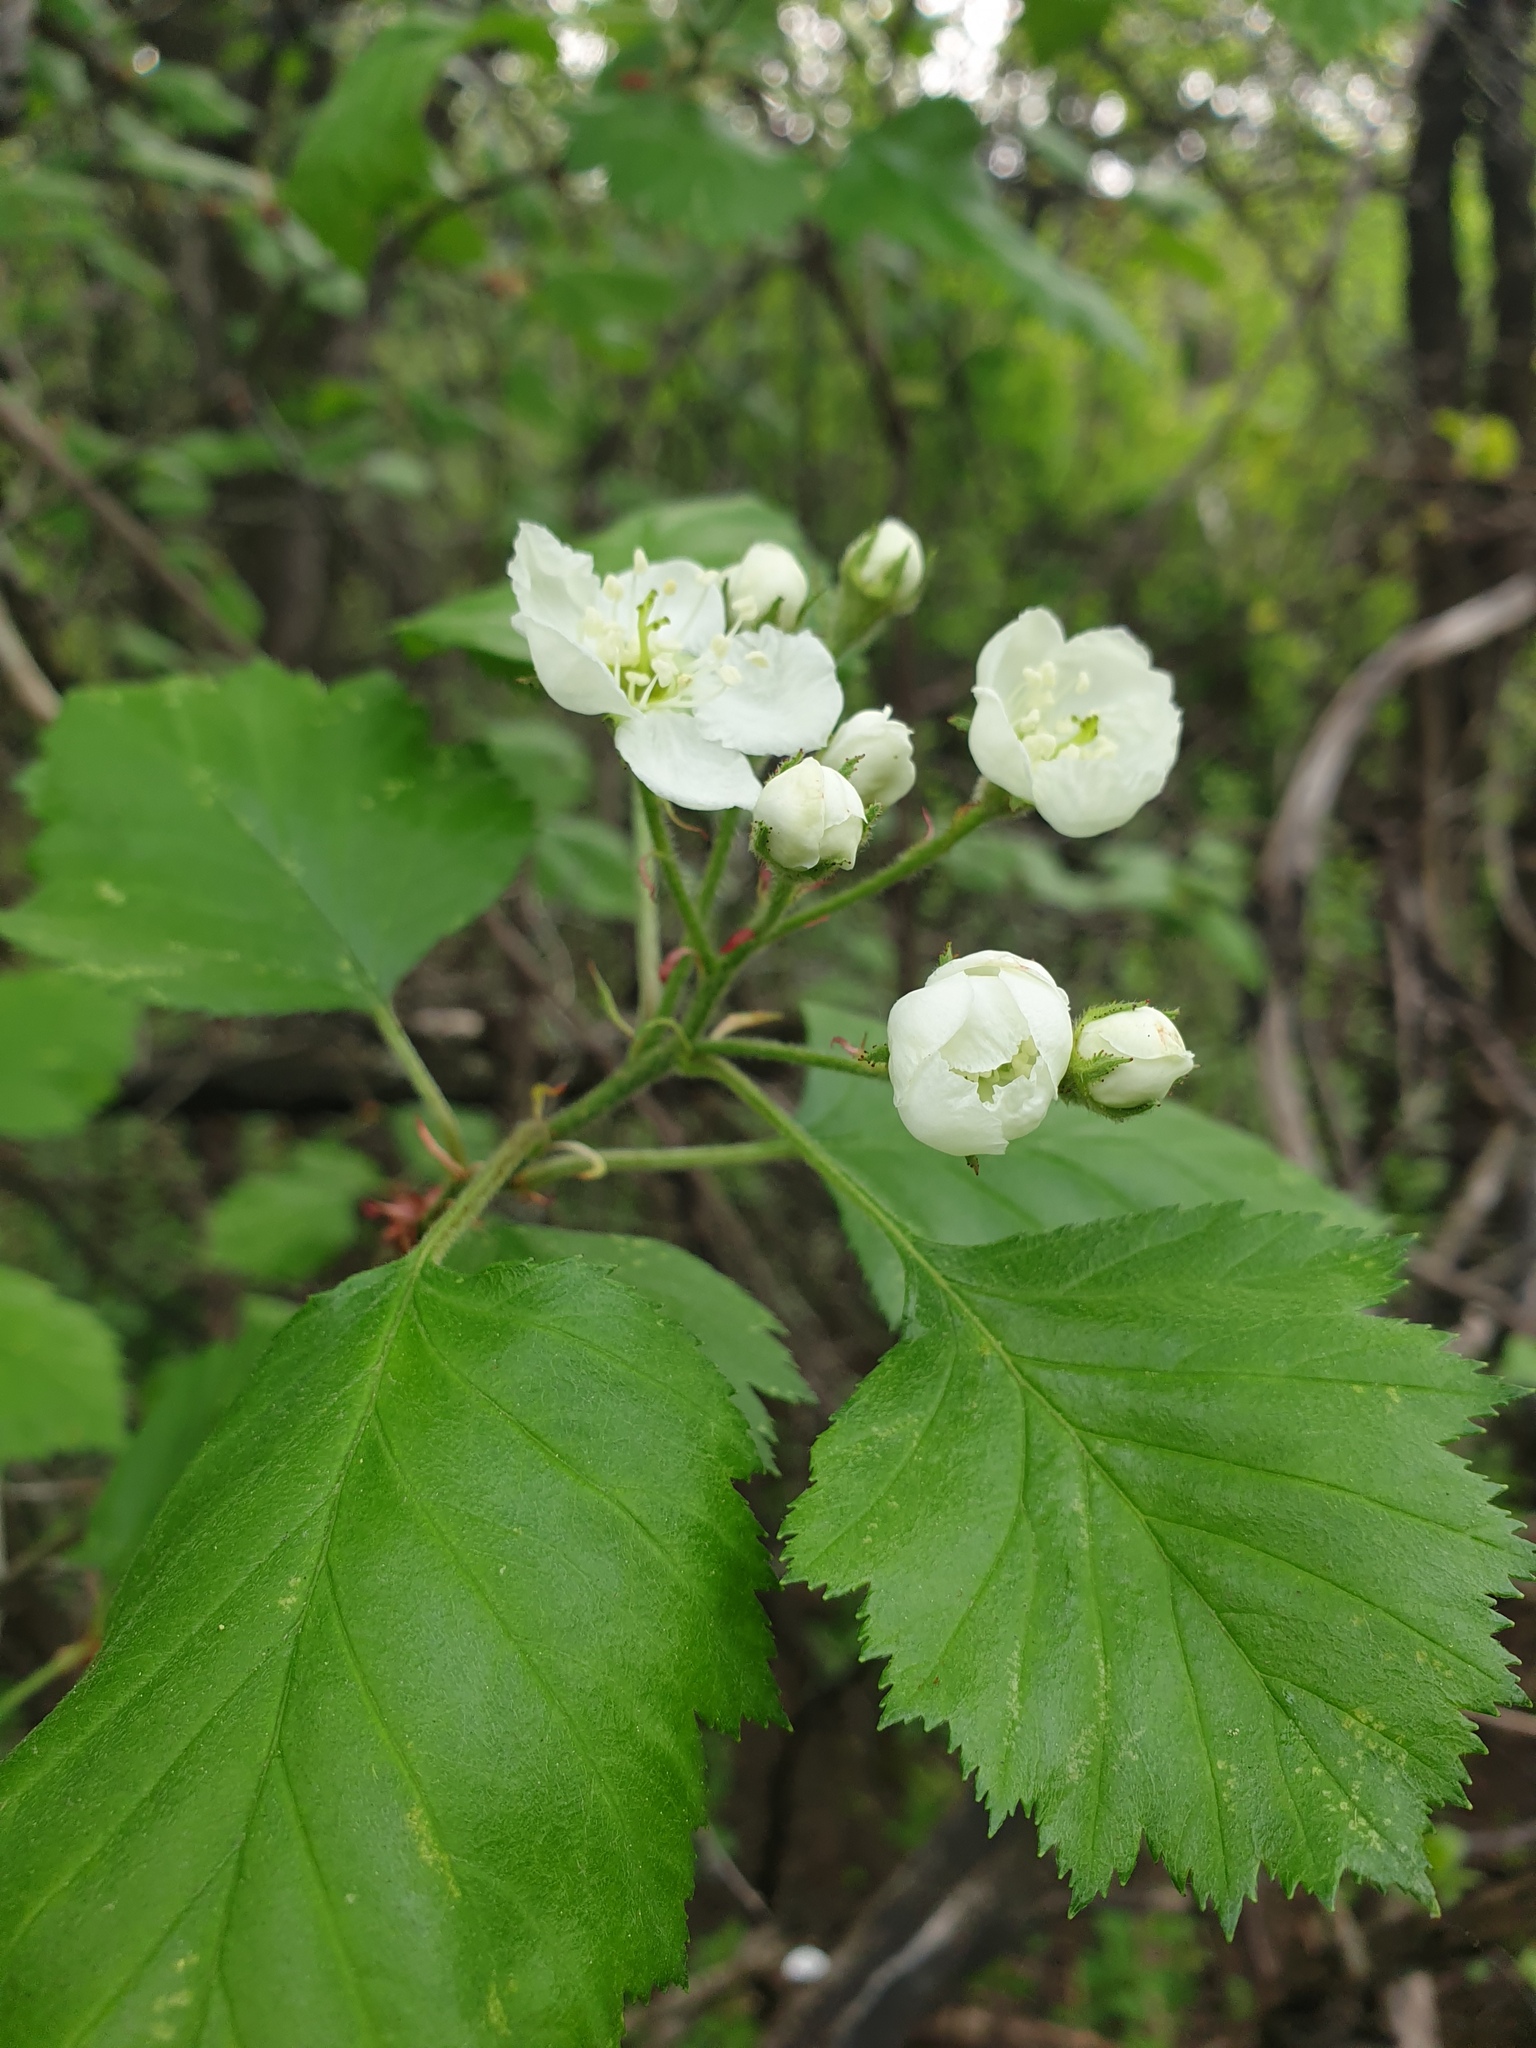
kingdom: Plantae
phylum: Tracheophyta
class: Magnoliopsida
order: Rosales
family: Rosaceae
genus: Crataegus
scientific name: Crataegus submollis
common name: Hairy cockspurthorn
